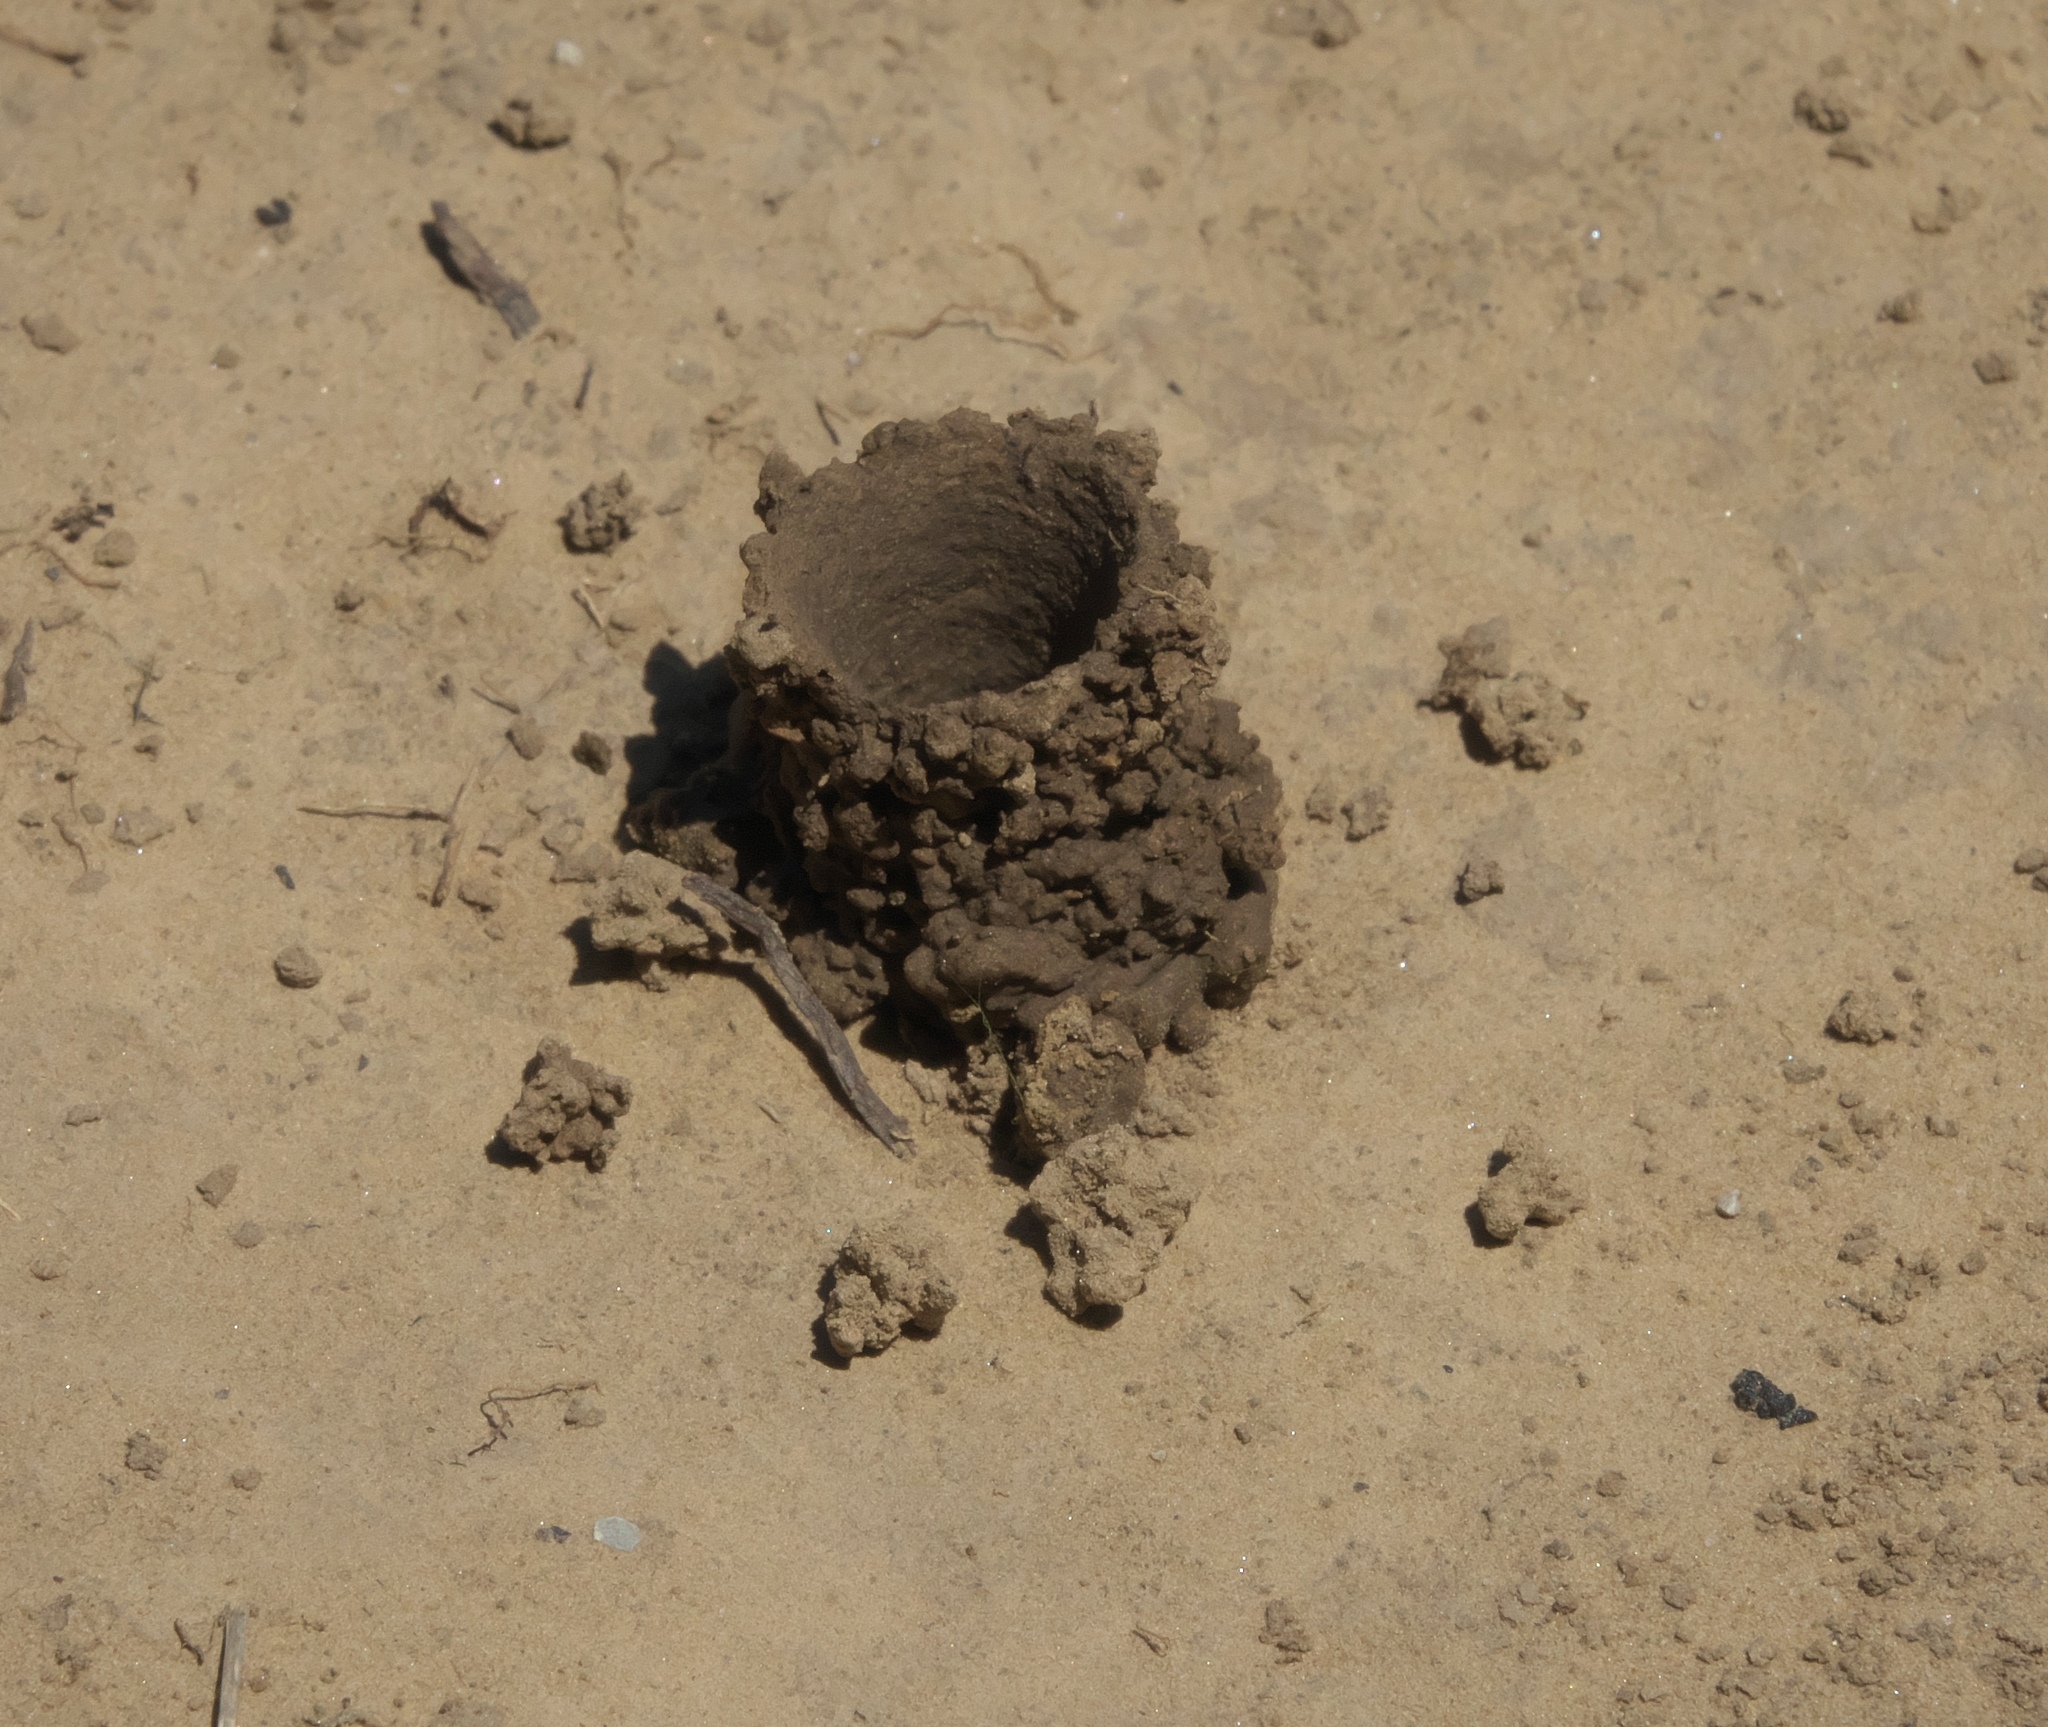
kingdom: Animalia
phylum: Arthropoda
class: Insecta
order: Hymenoptera
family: Apidae
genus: Ptilothrix
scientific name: Ptilothrix bombiformis
